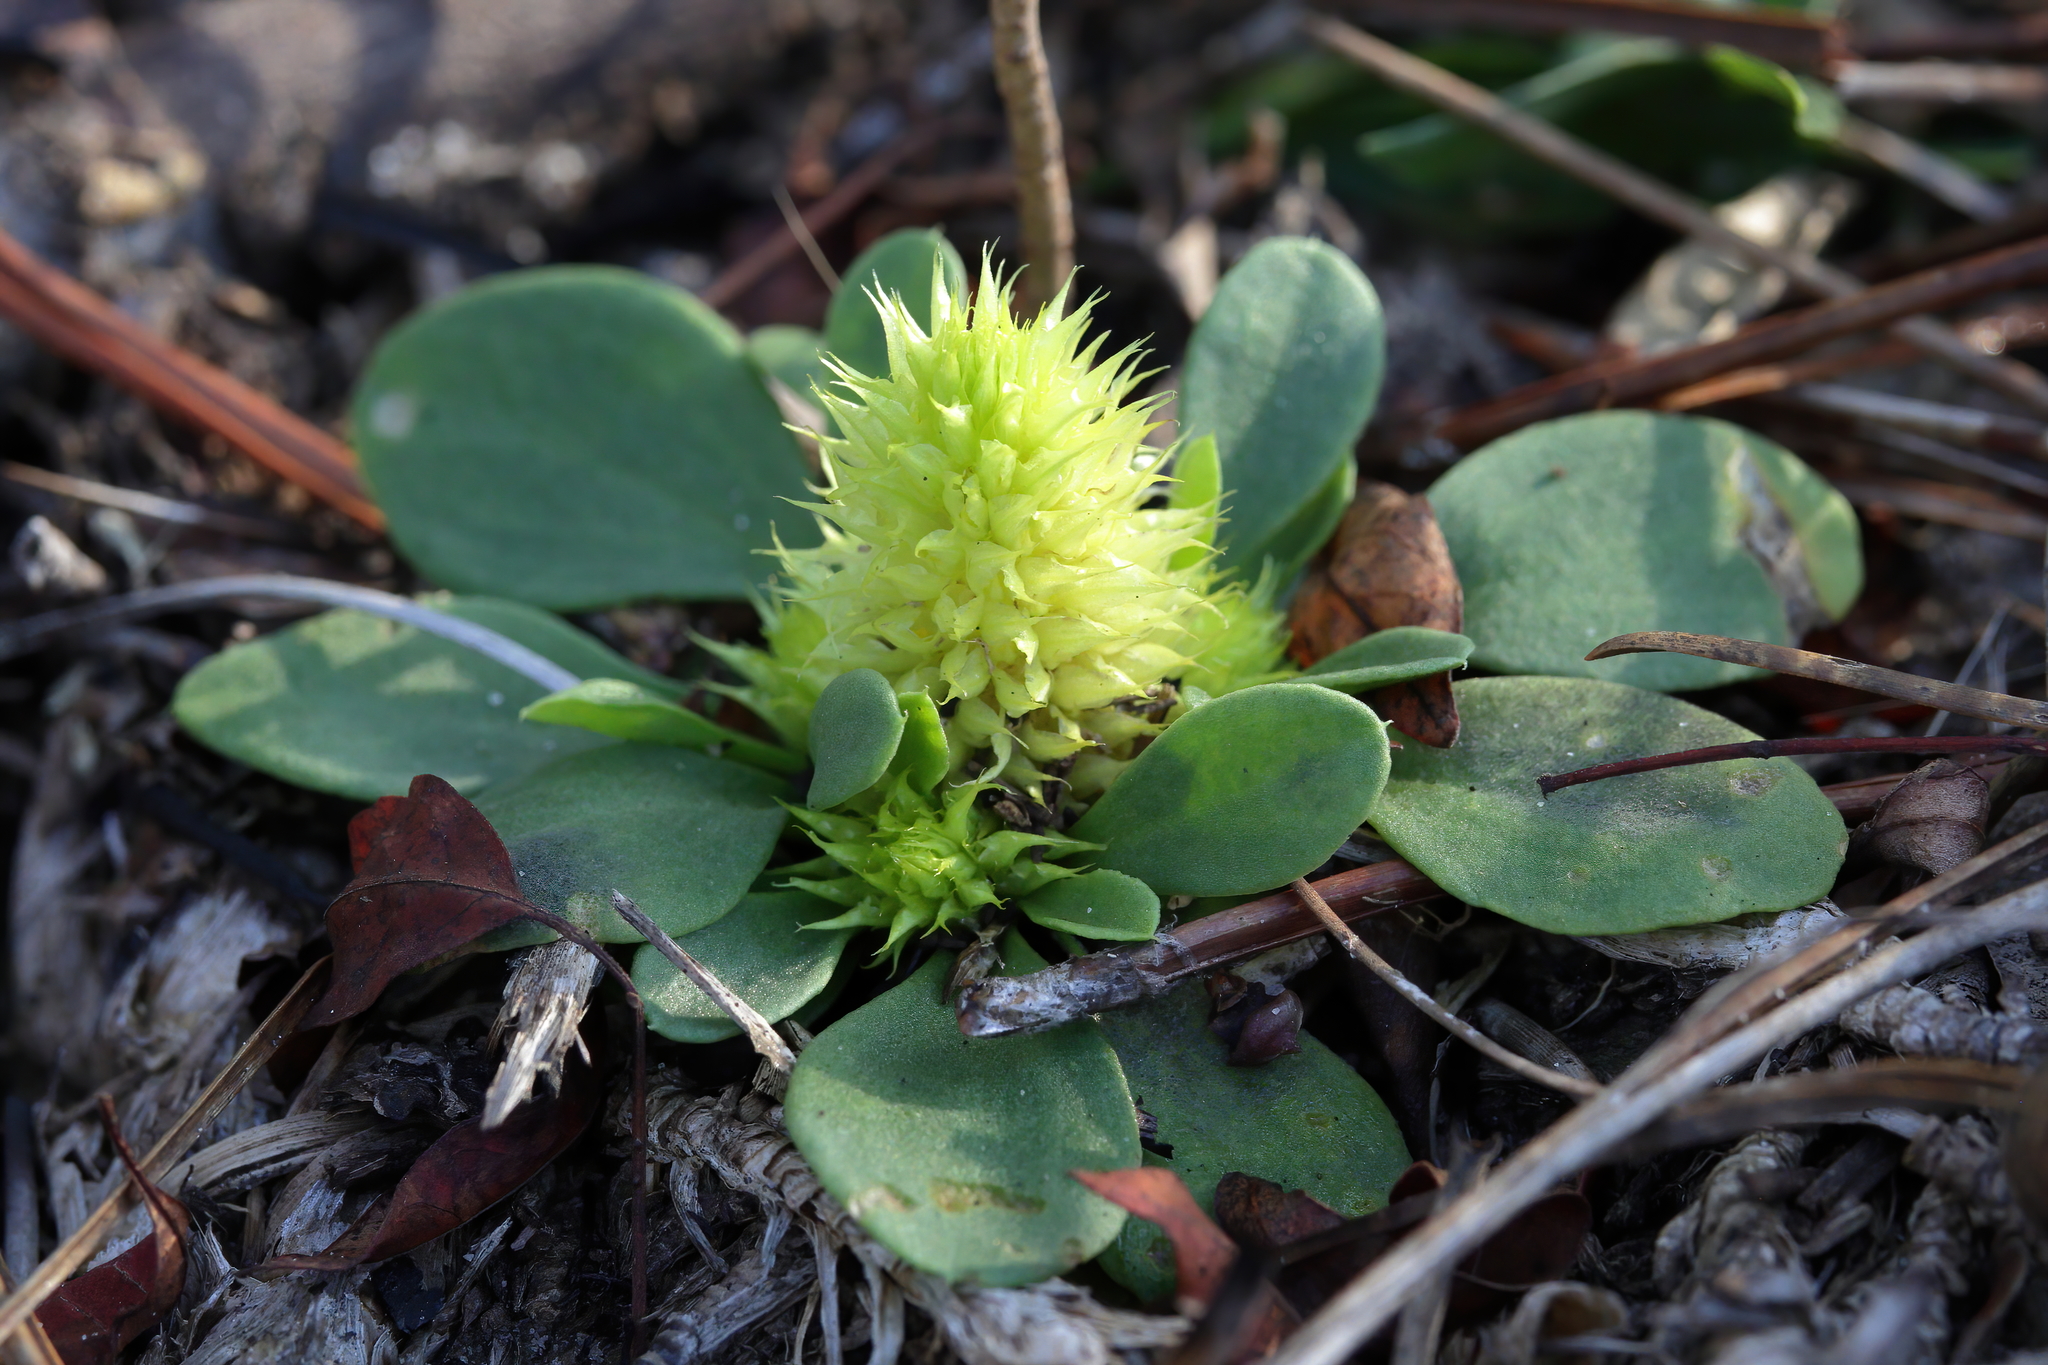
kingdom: Plantae
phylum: Tracheophyta
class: Magnoliopsida
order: Fabales
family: Polygalaceae
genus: Polygala
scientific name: Polygala nana
